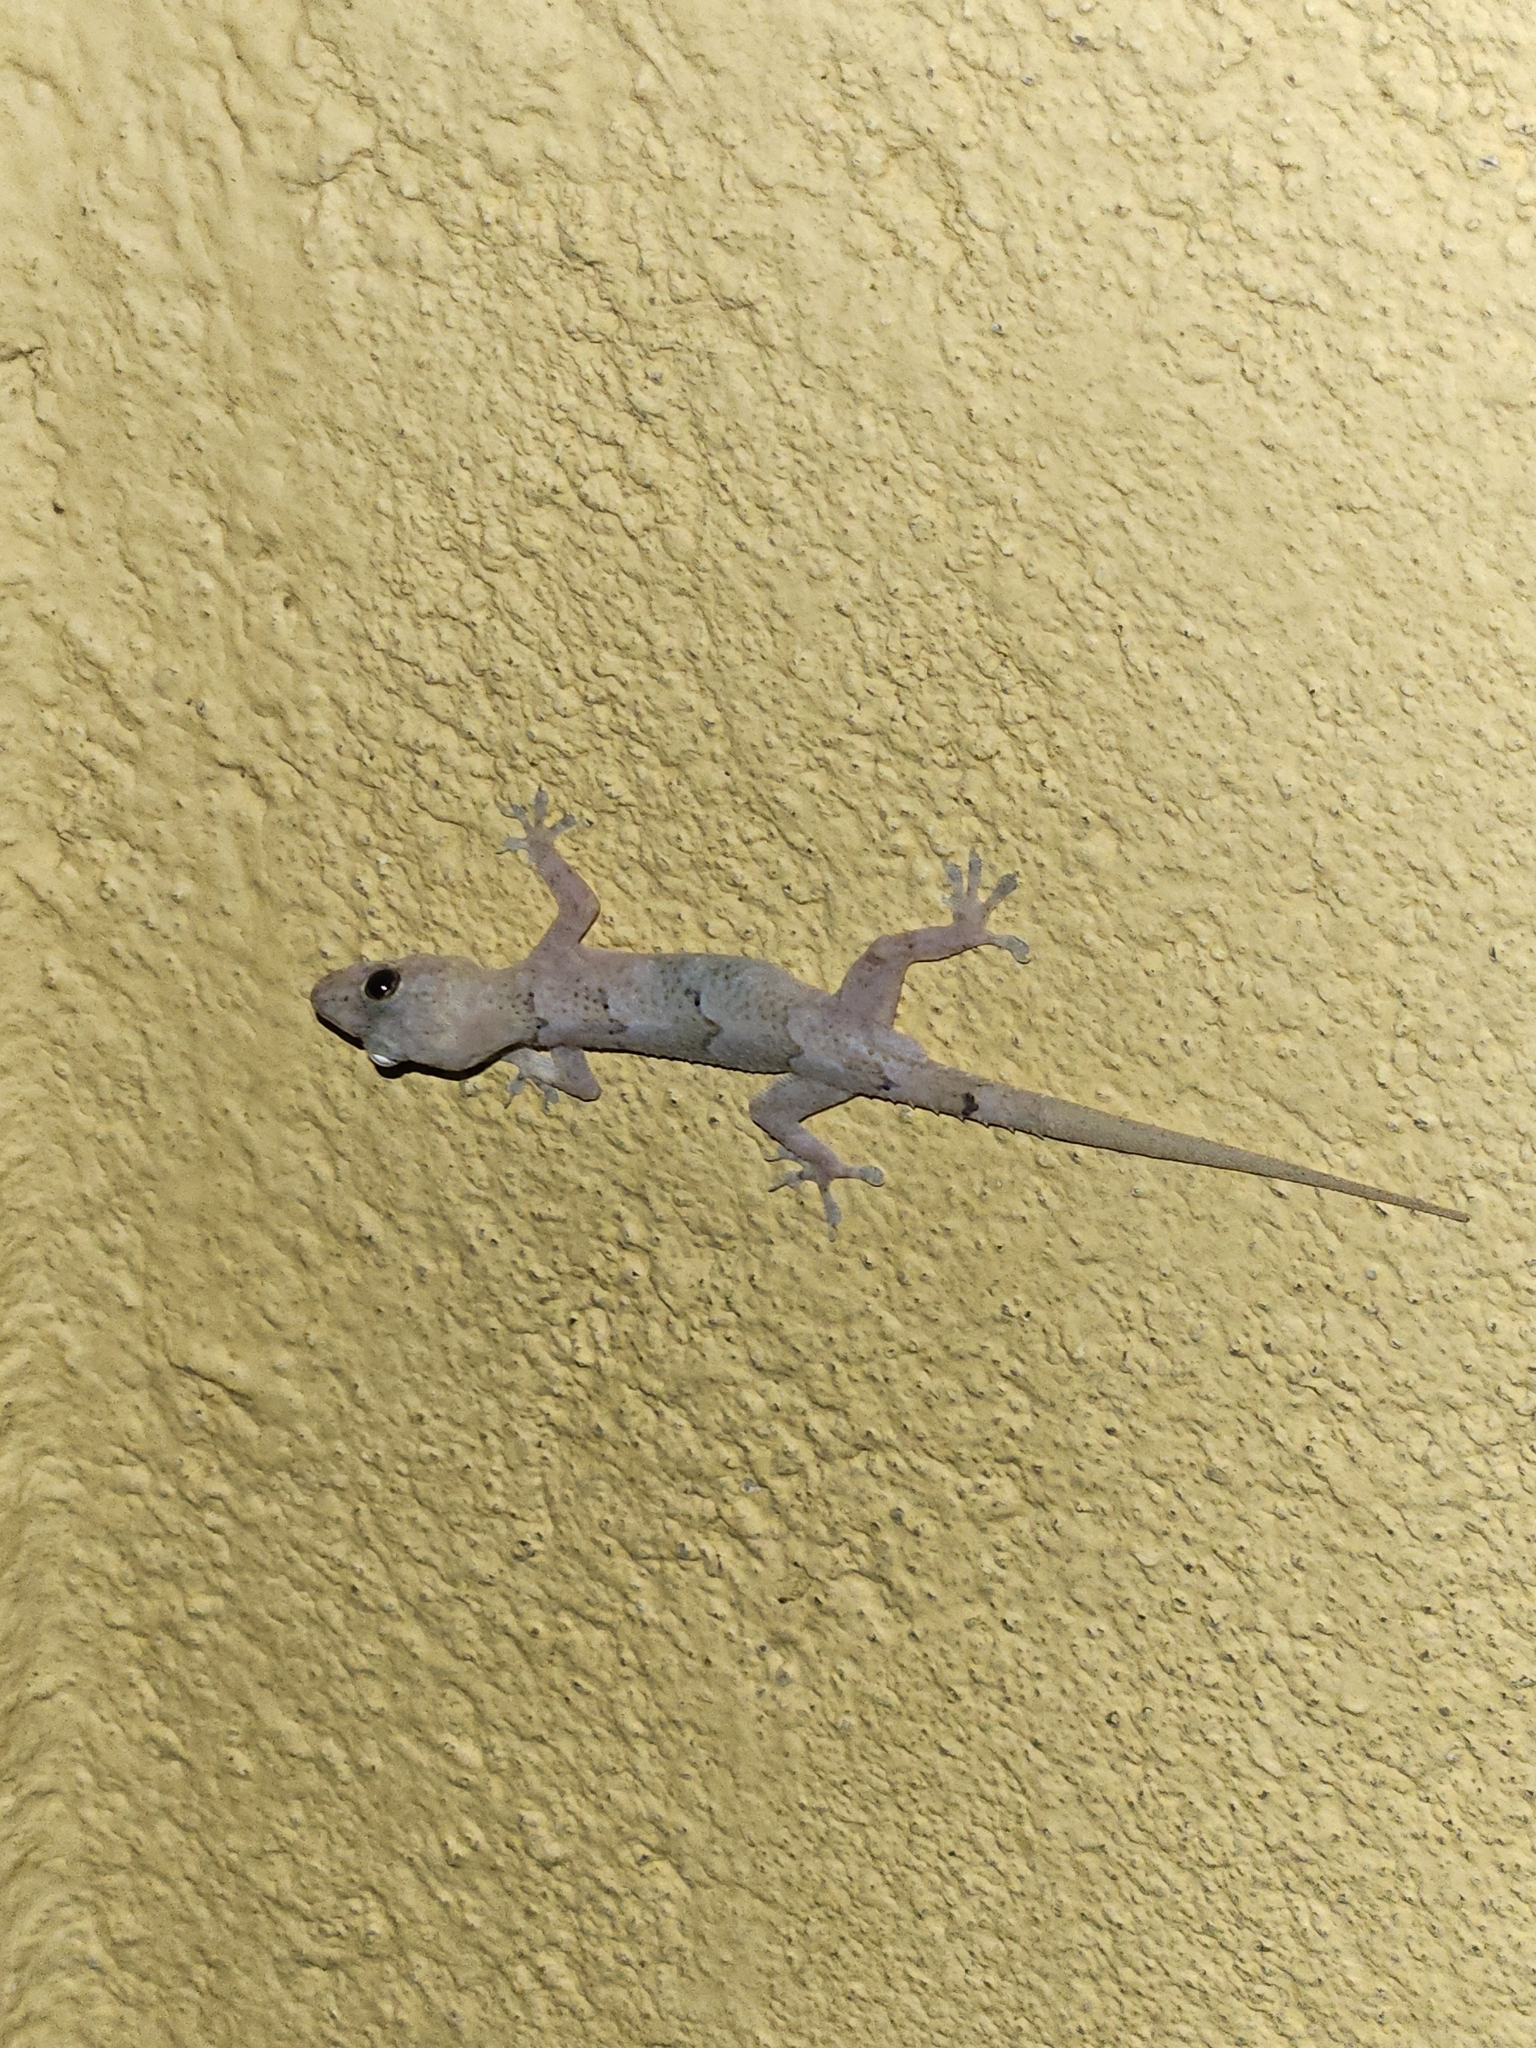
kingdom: Animalia
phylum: Chordata
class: Squamata
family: Gekkonidae
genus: Hemidactylus
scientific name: Hemidactylus mabouia
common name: House gecko
